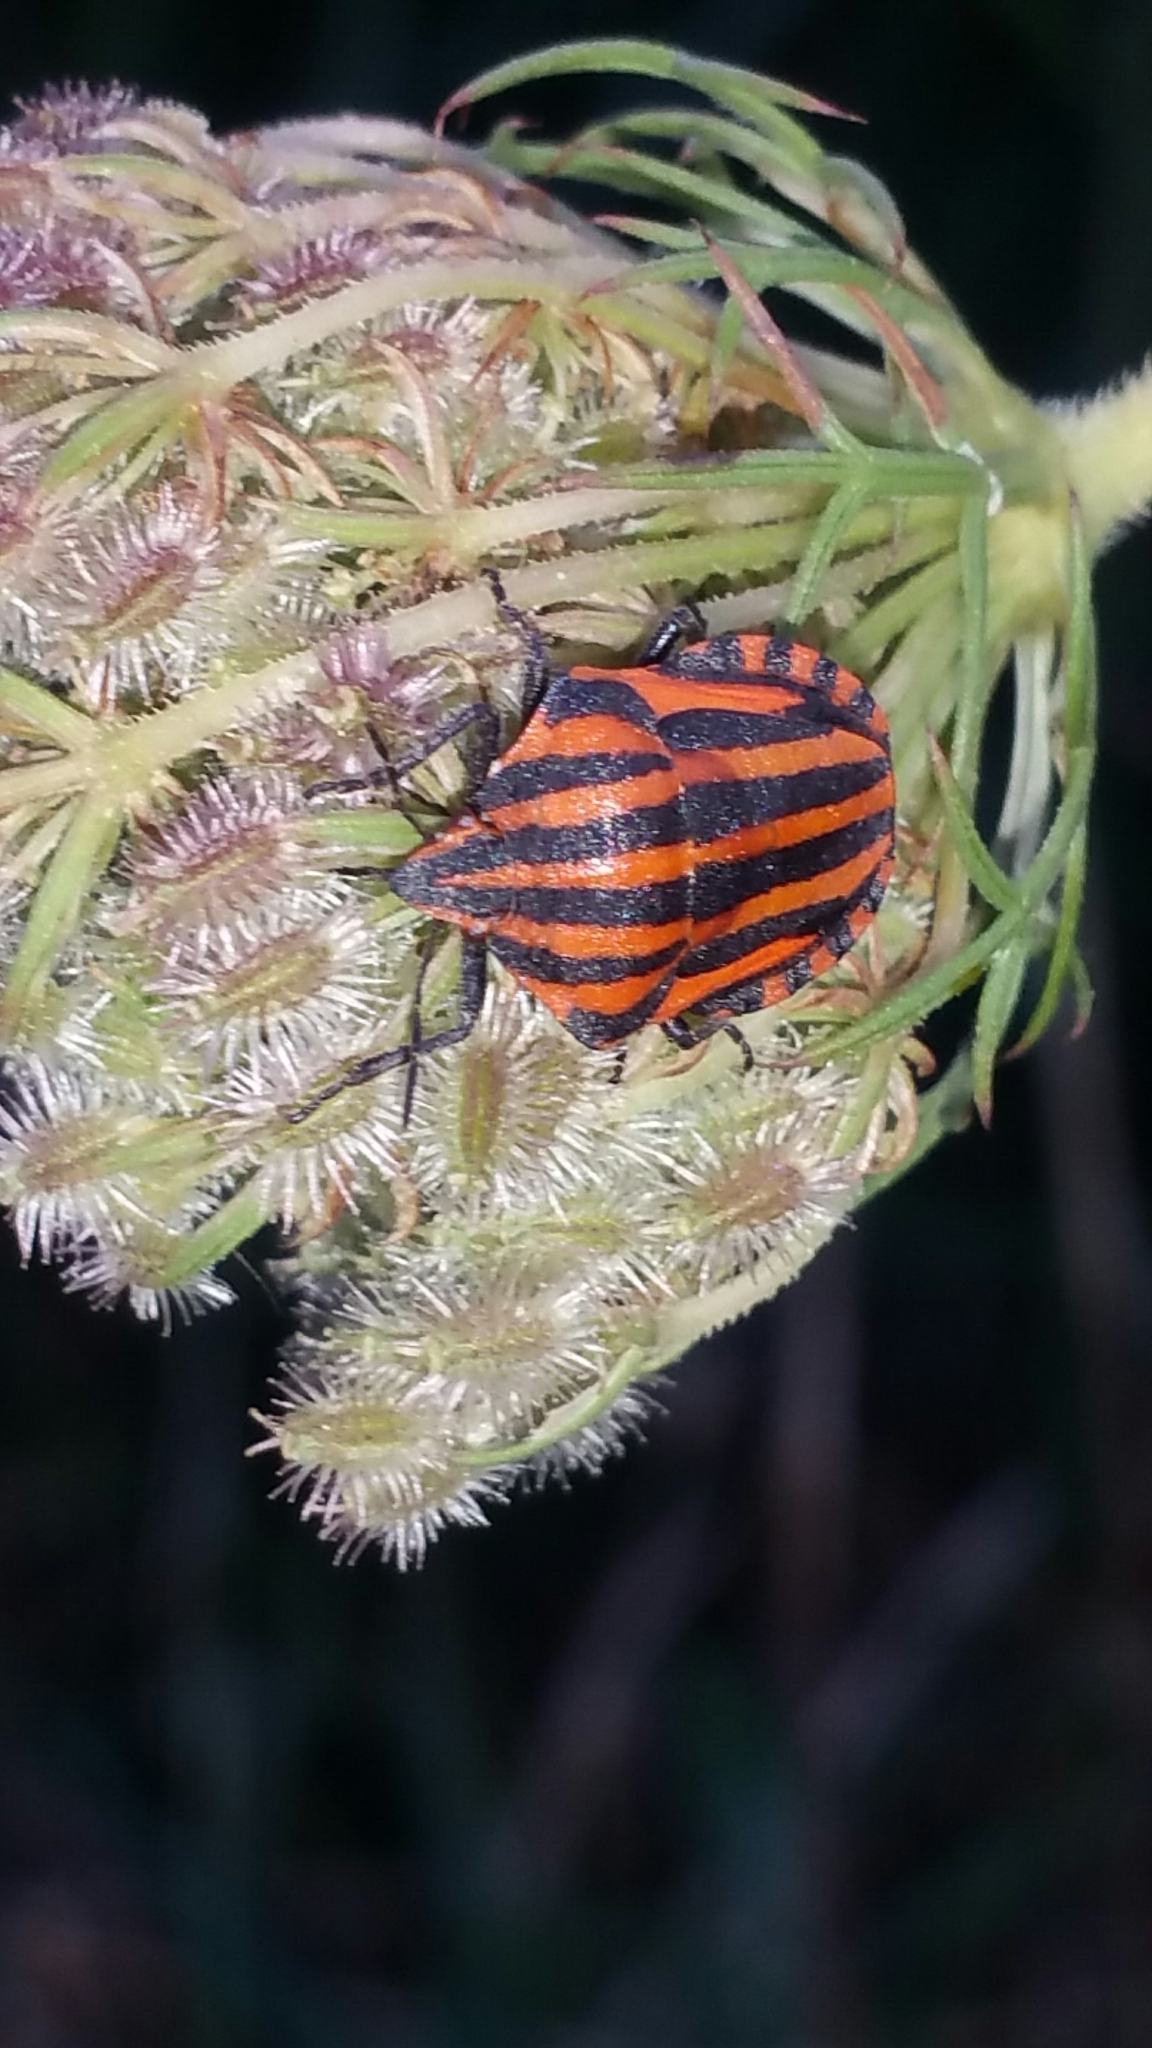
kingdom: Animalia
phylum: Arthropoda
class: Insecta
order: Hemiptera
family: Pentatomidae
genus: Graphosoma
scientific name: Graphosoma italicum
